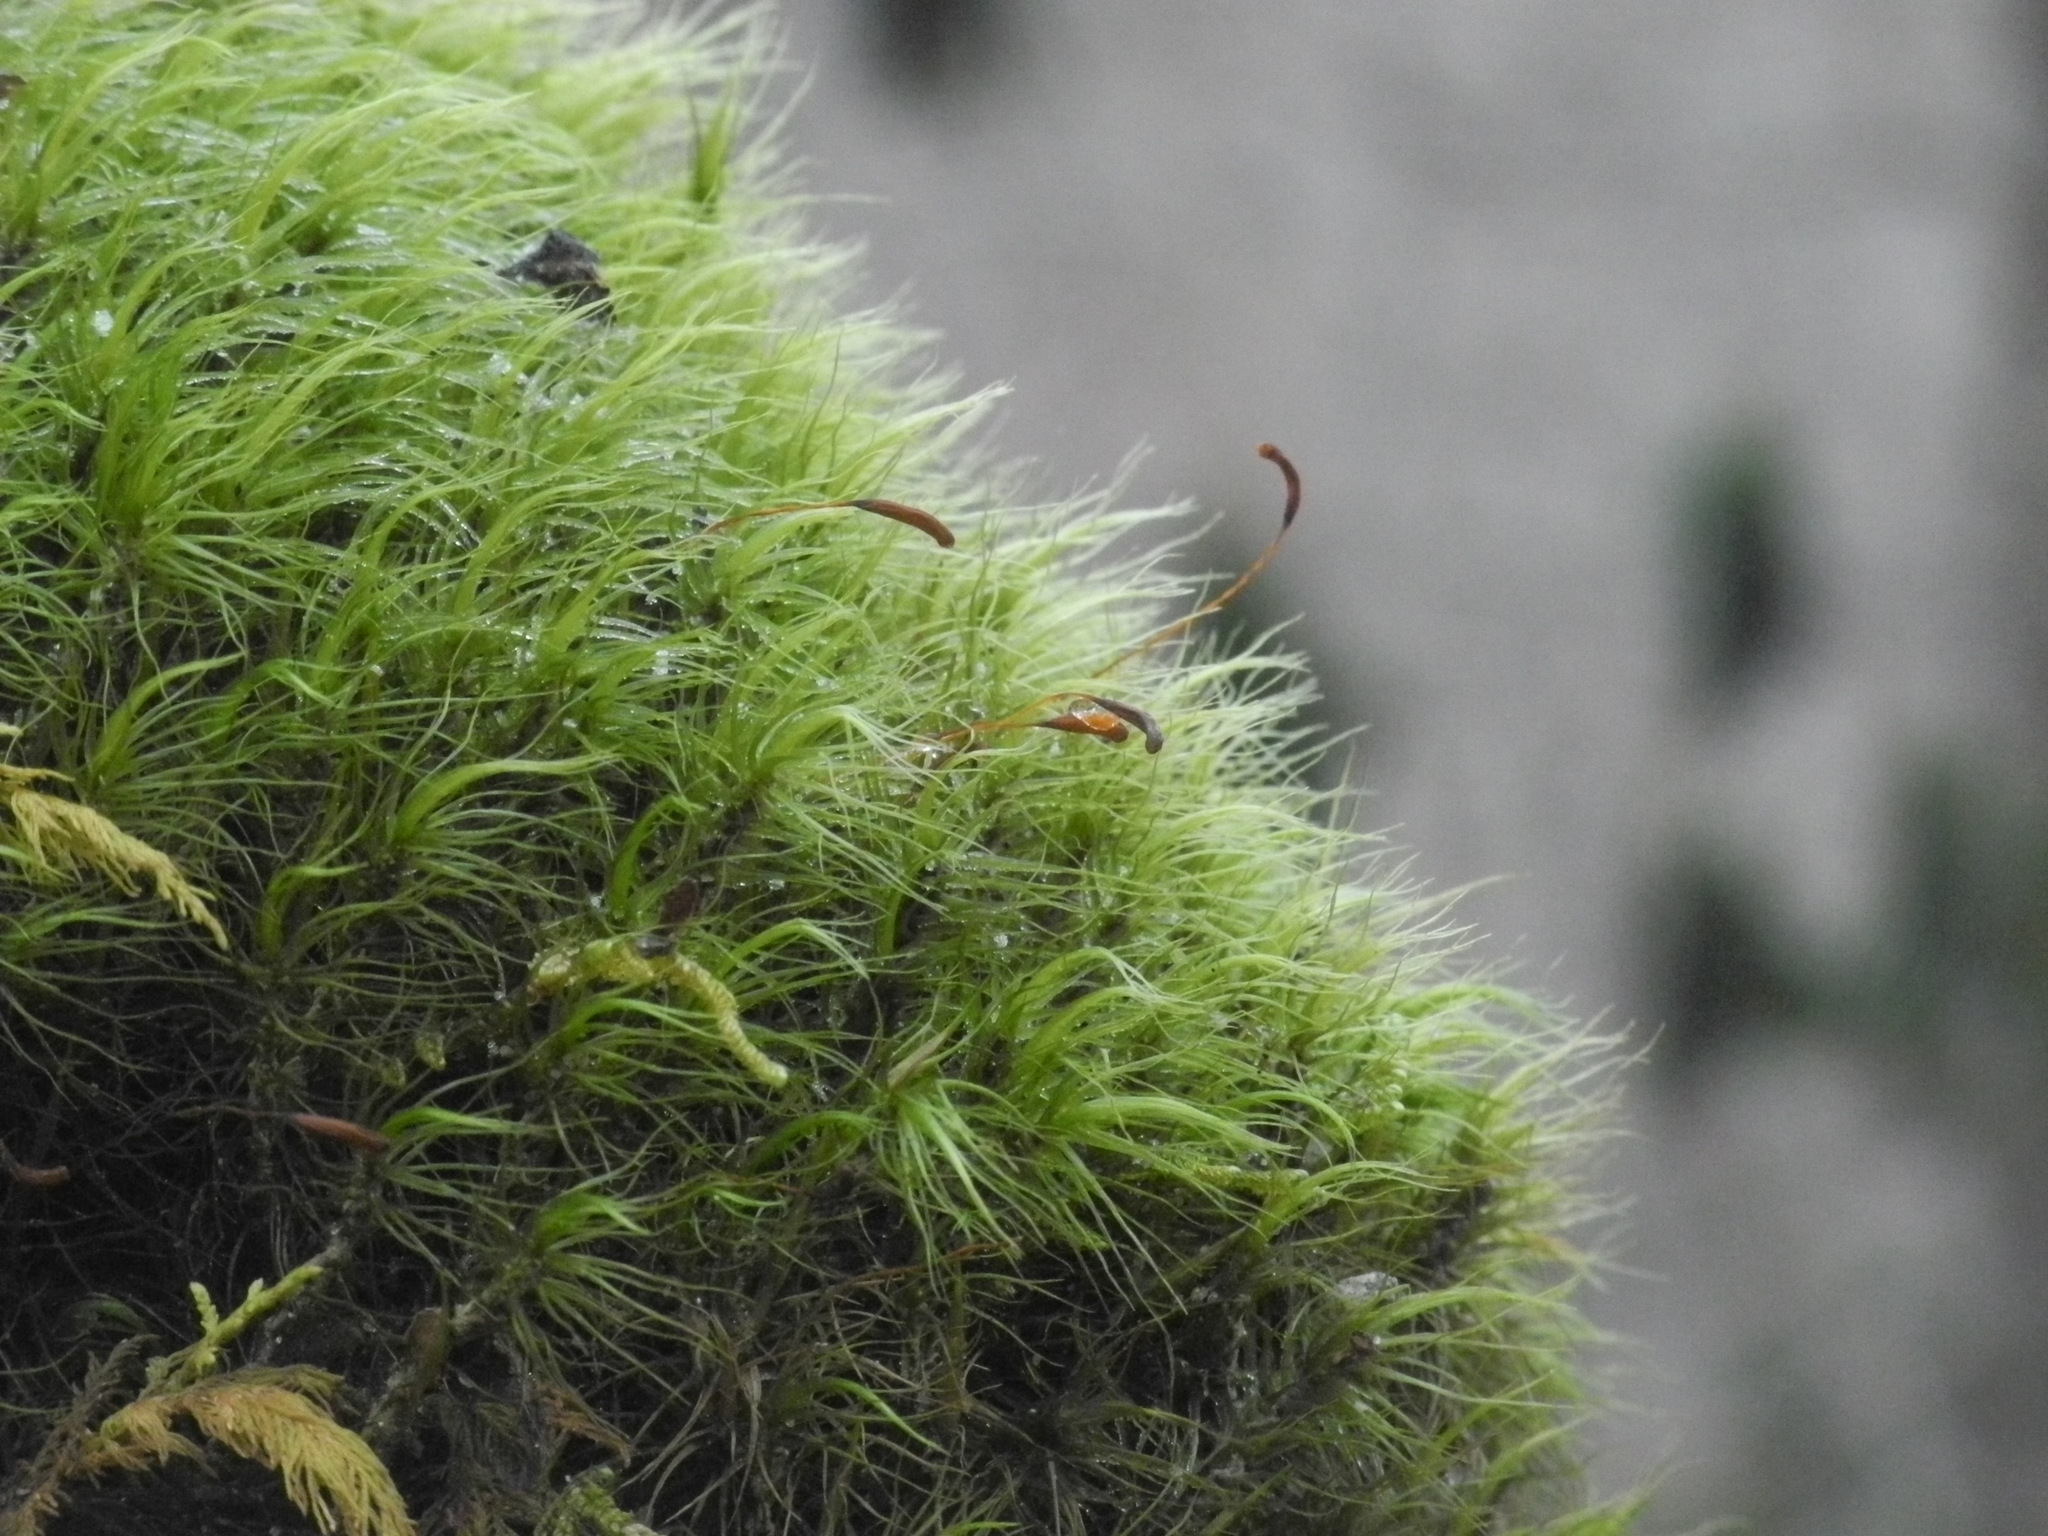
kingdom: Plantae
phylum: Bryophyta
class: Bryopsida
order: Dicranales
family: Dicranaceae
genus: Dicranum
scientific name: Dicranum scoparium
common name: Broom fork-moss
